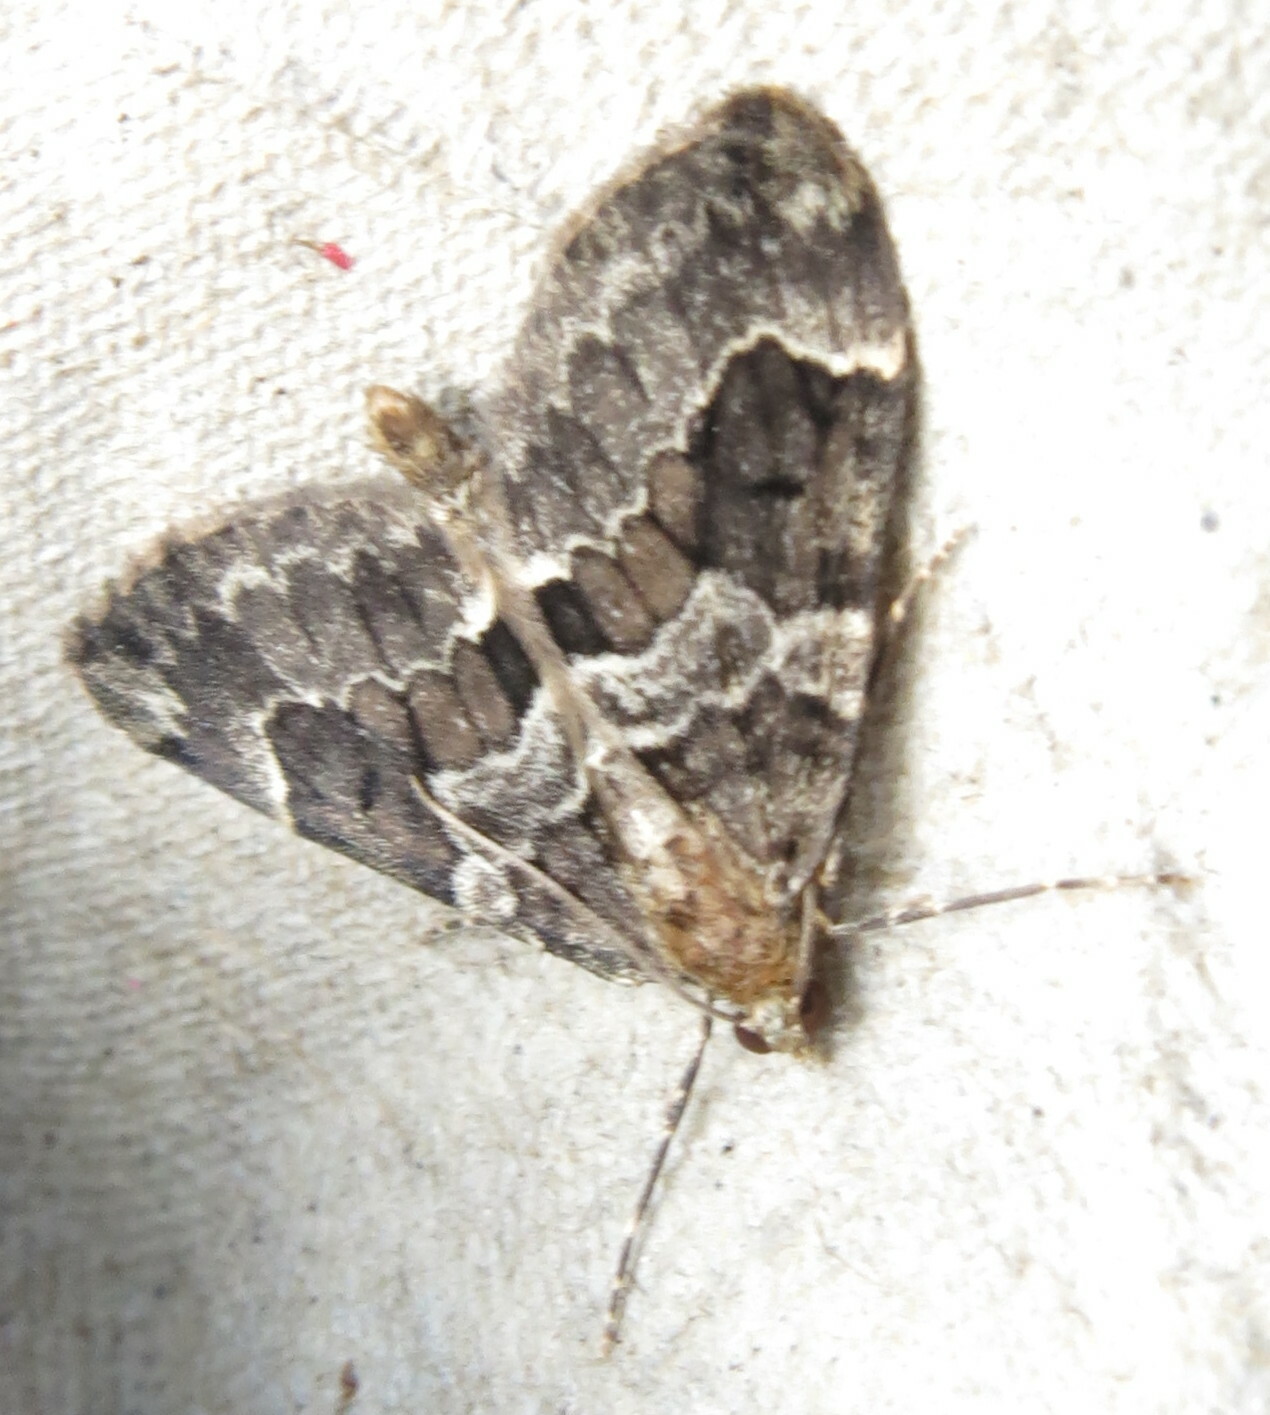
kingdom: Animalia
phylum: Arthropoda
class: Insecta
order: Lepidoptera
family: Geometridae
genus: Thera
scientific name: Thera britannica
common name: Spruce carpet
